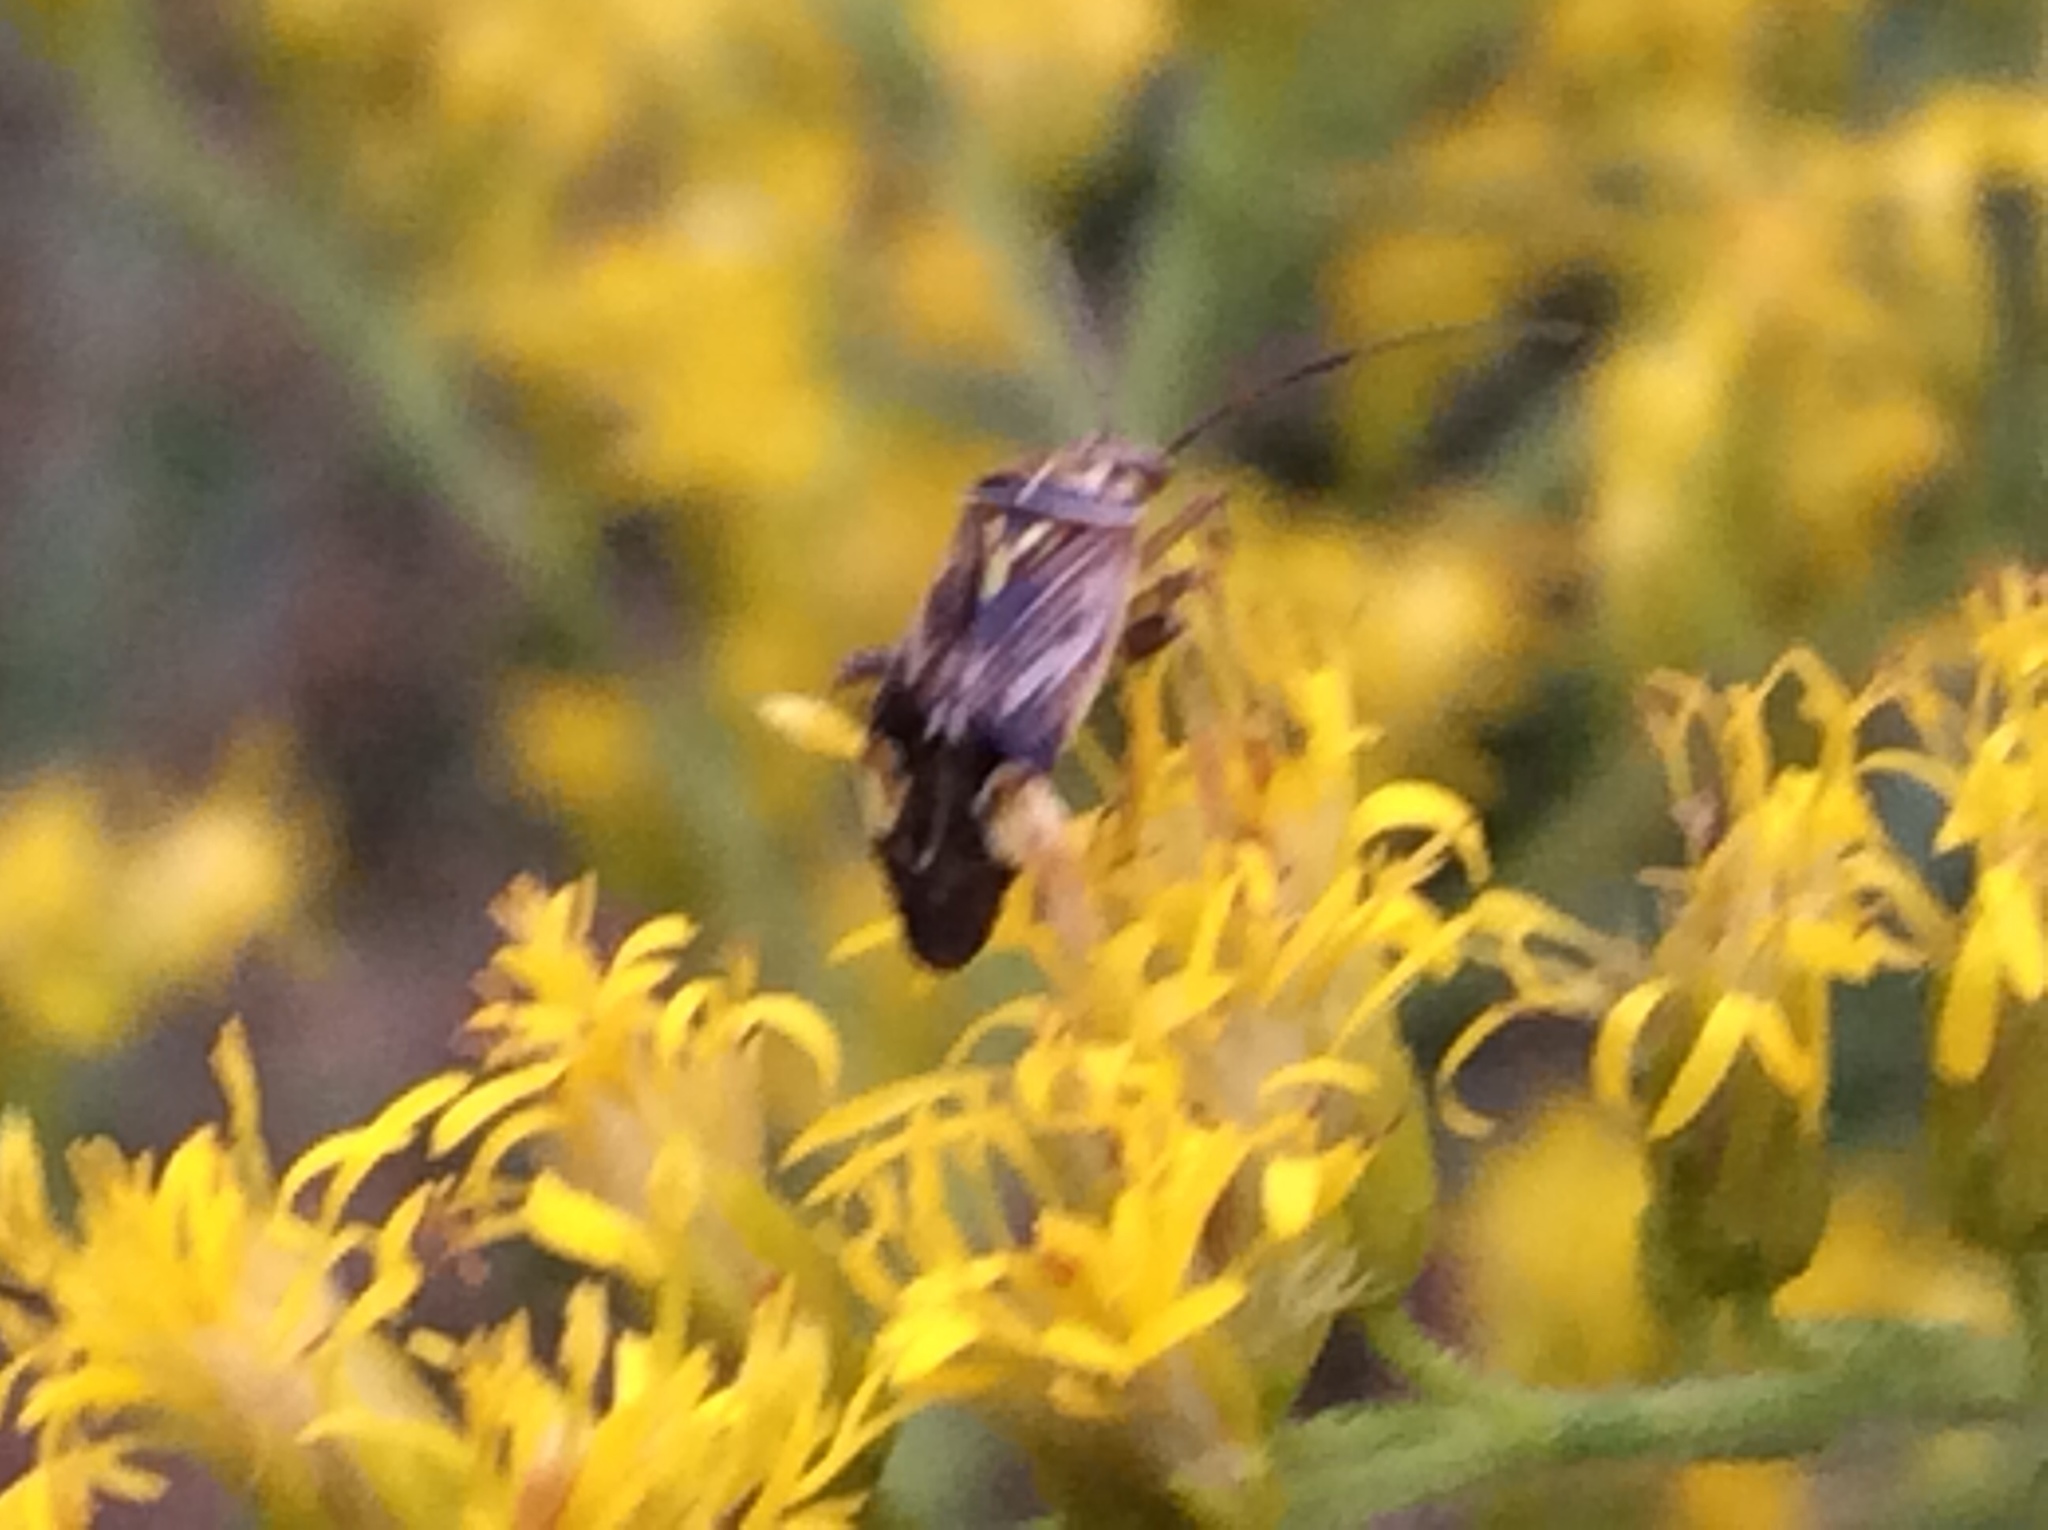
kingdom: Animalia
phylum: Arthropoda
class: Insecta
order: Hemiptera
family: Miridae
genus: Lygus
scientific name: Lygus lineolaris
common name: North american tarnished plant bug
